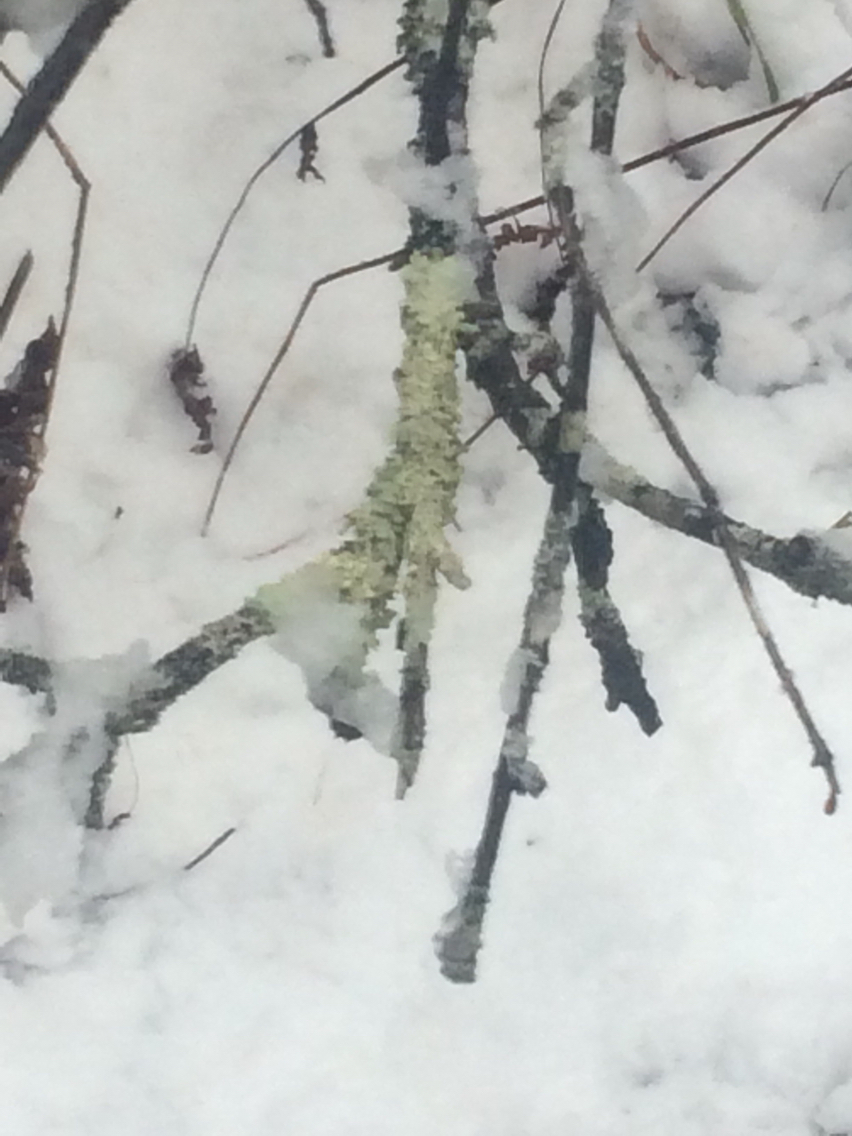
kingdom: Fungi
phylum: Ascomycota
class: Lecanoromycetes
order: Lecanorales
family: Parmeliaceae
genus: Flavoparmelia
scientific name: Flavoparmelia caperata
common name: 40-mile per hour lichen
